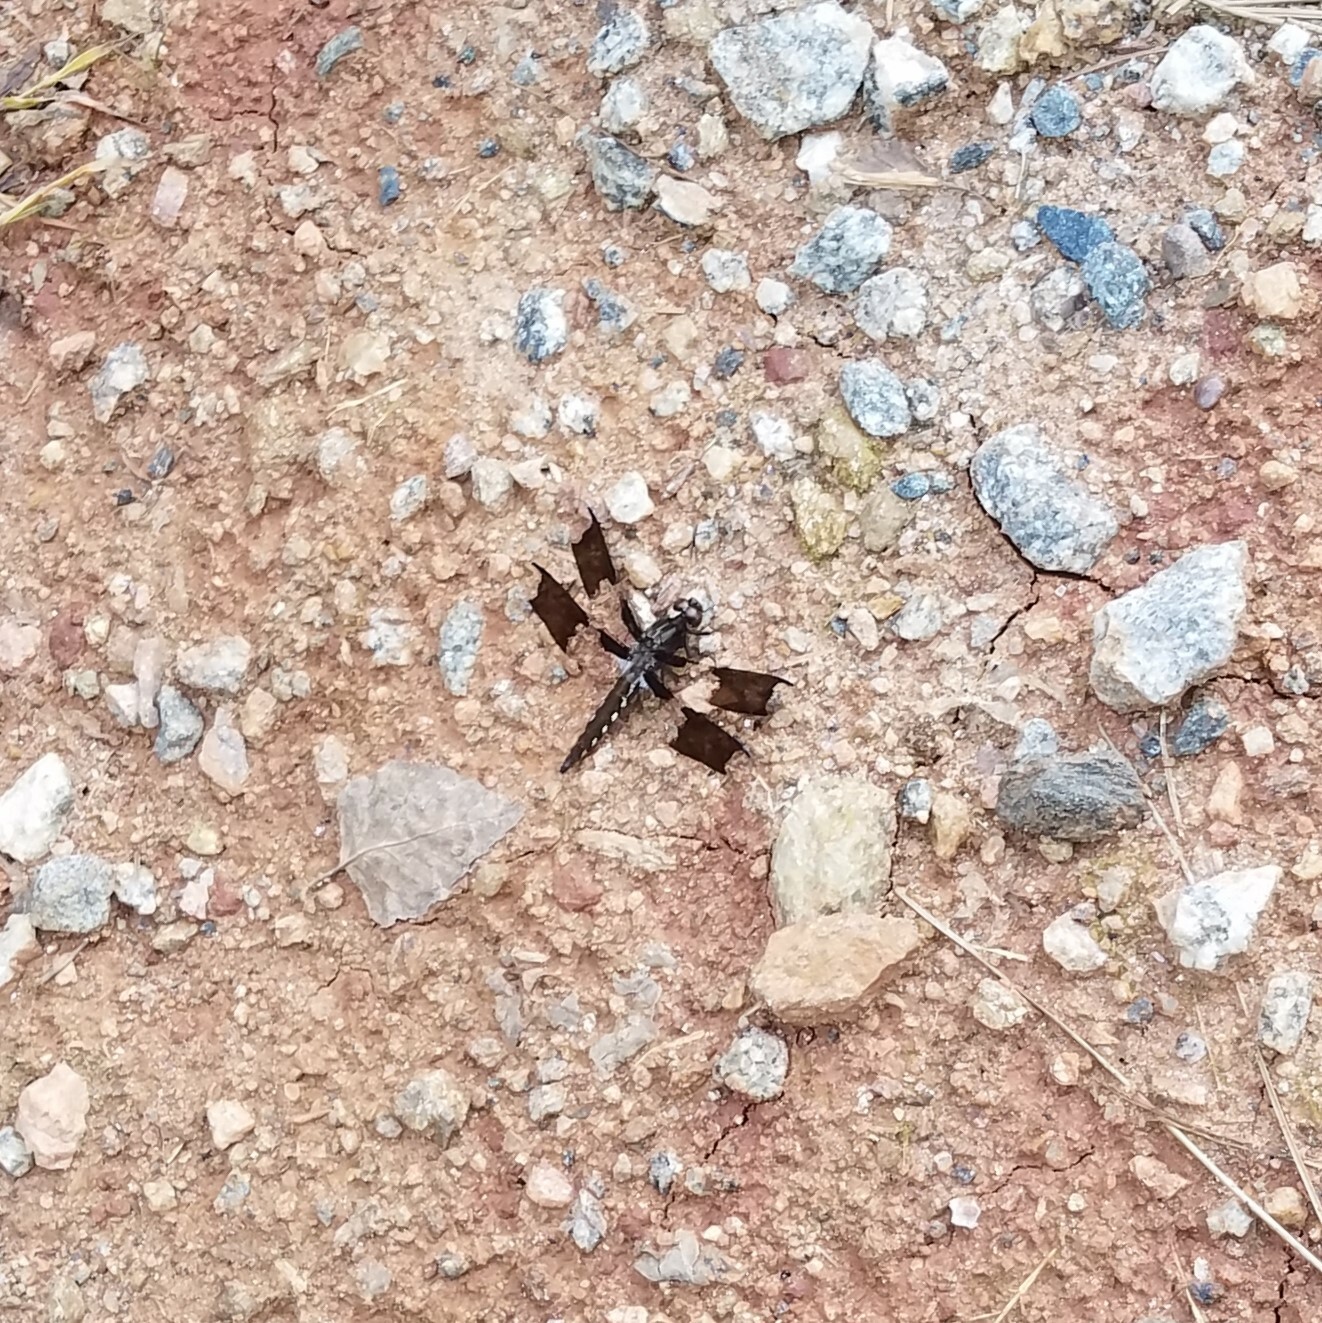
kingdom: Animalia
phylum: Arthropoda
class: Insecta
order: Odonata
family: Libellulidae
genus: Plathemis
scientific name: Plathemis lydia
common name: Common whitetail
